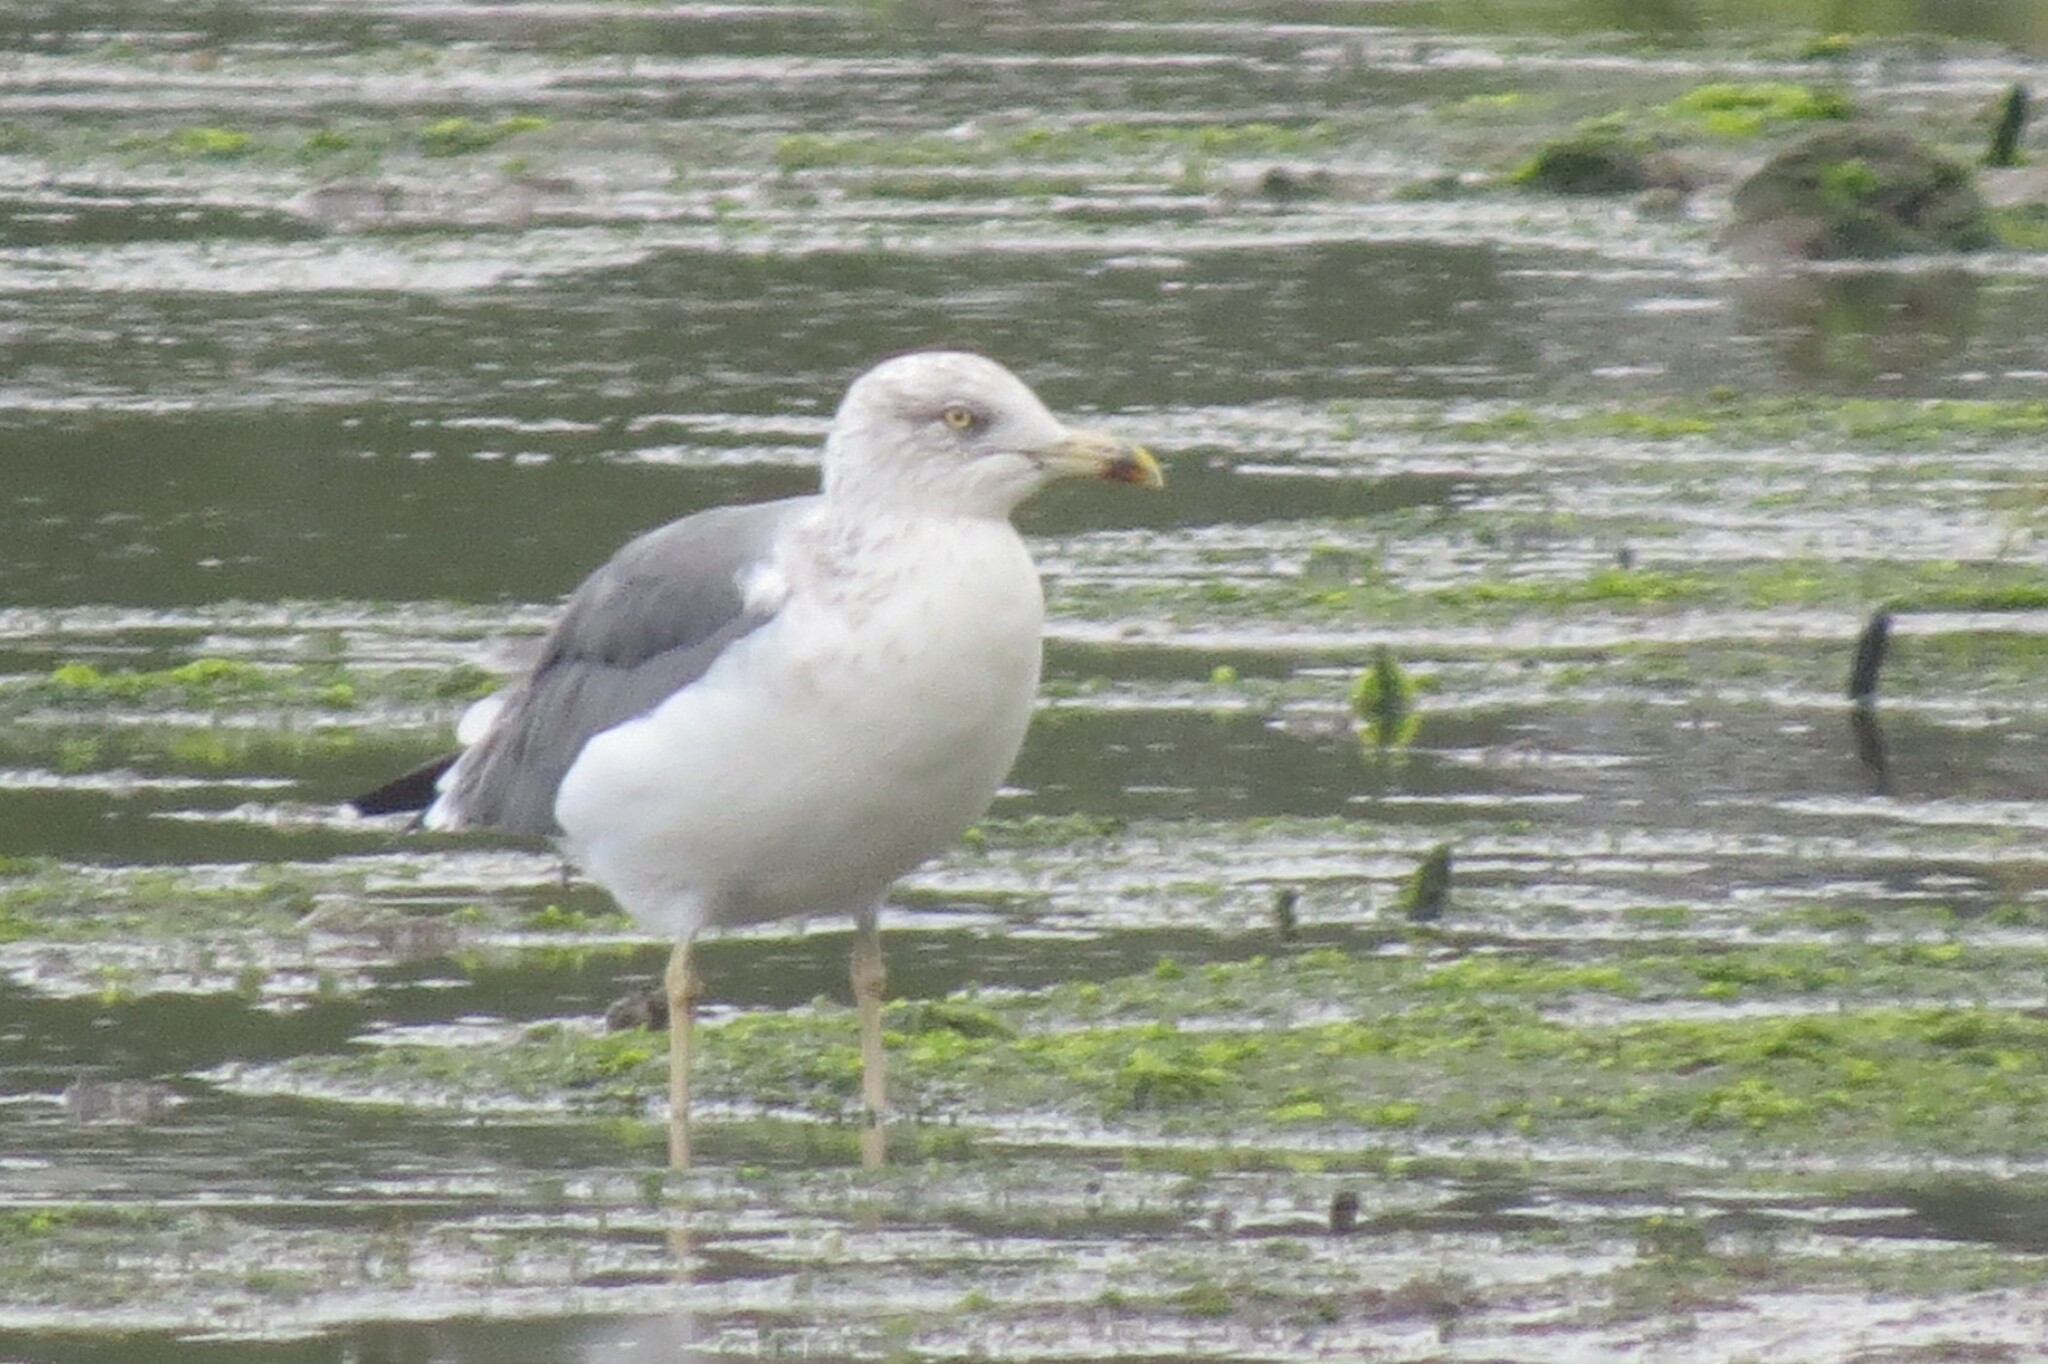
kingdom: Animalia
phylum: Chordata
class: Aves
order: Charadriiformes
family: Laridae
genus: Larus
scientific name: Larus fuscus
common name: Lesser black-backed gull
